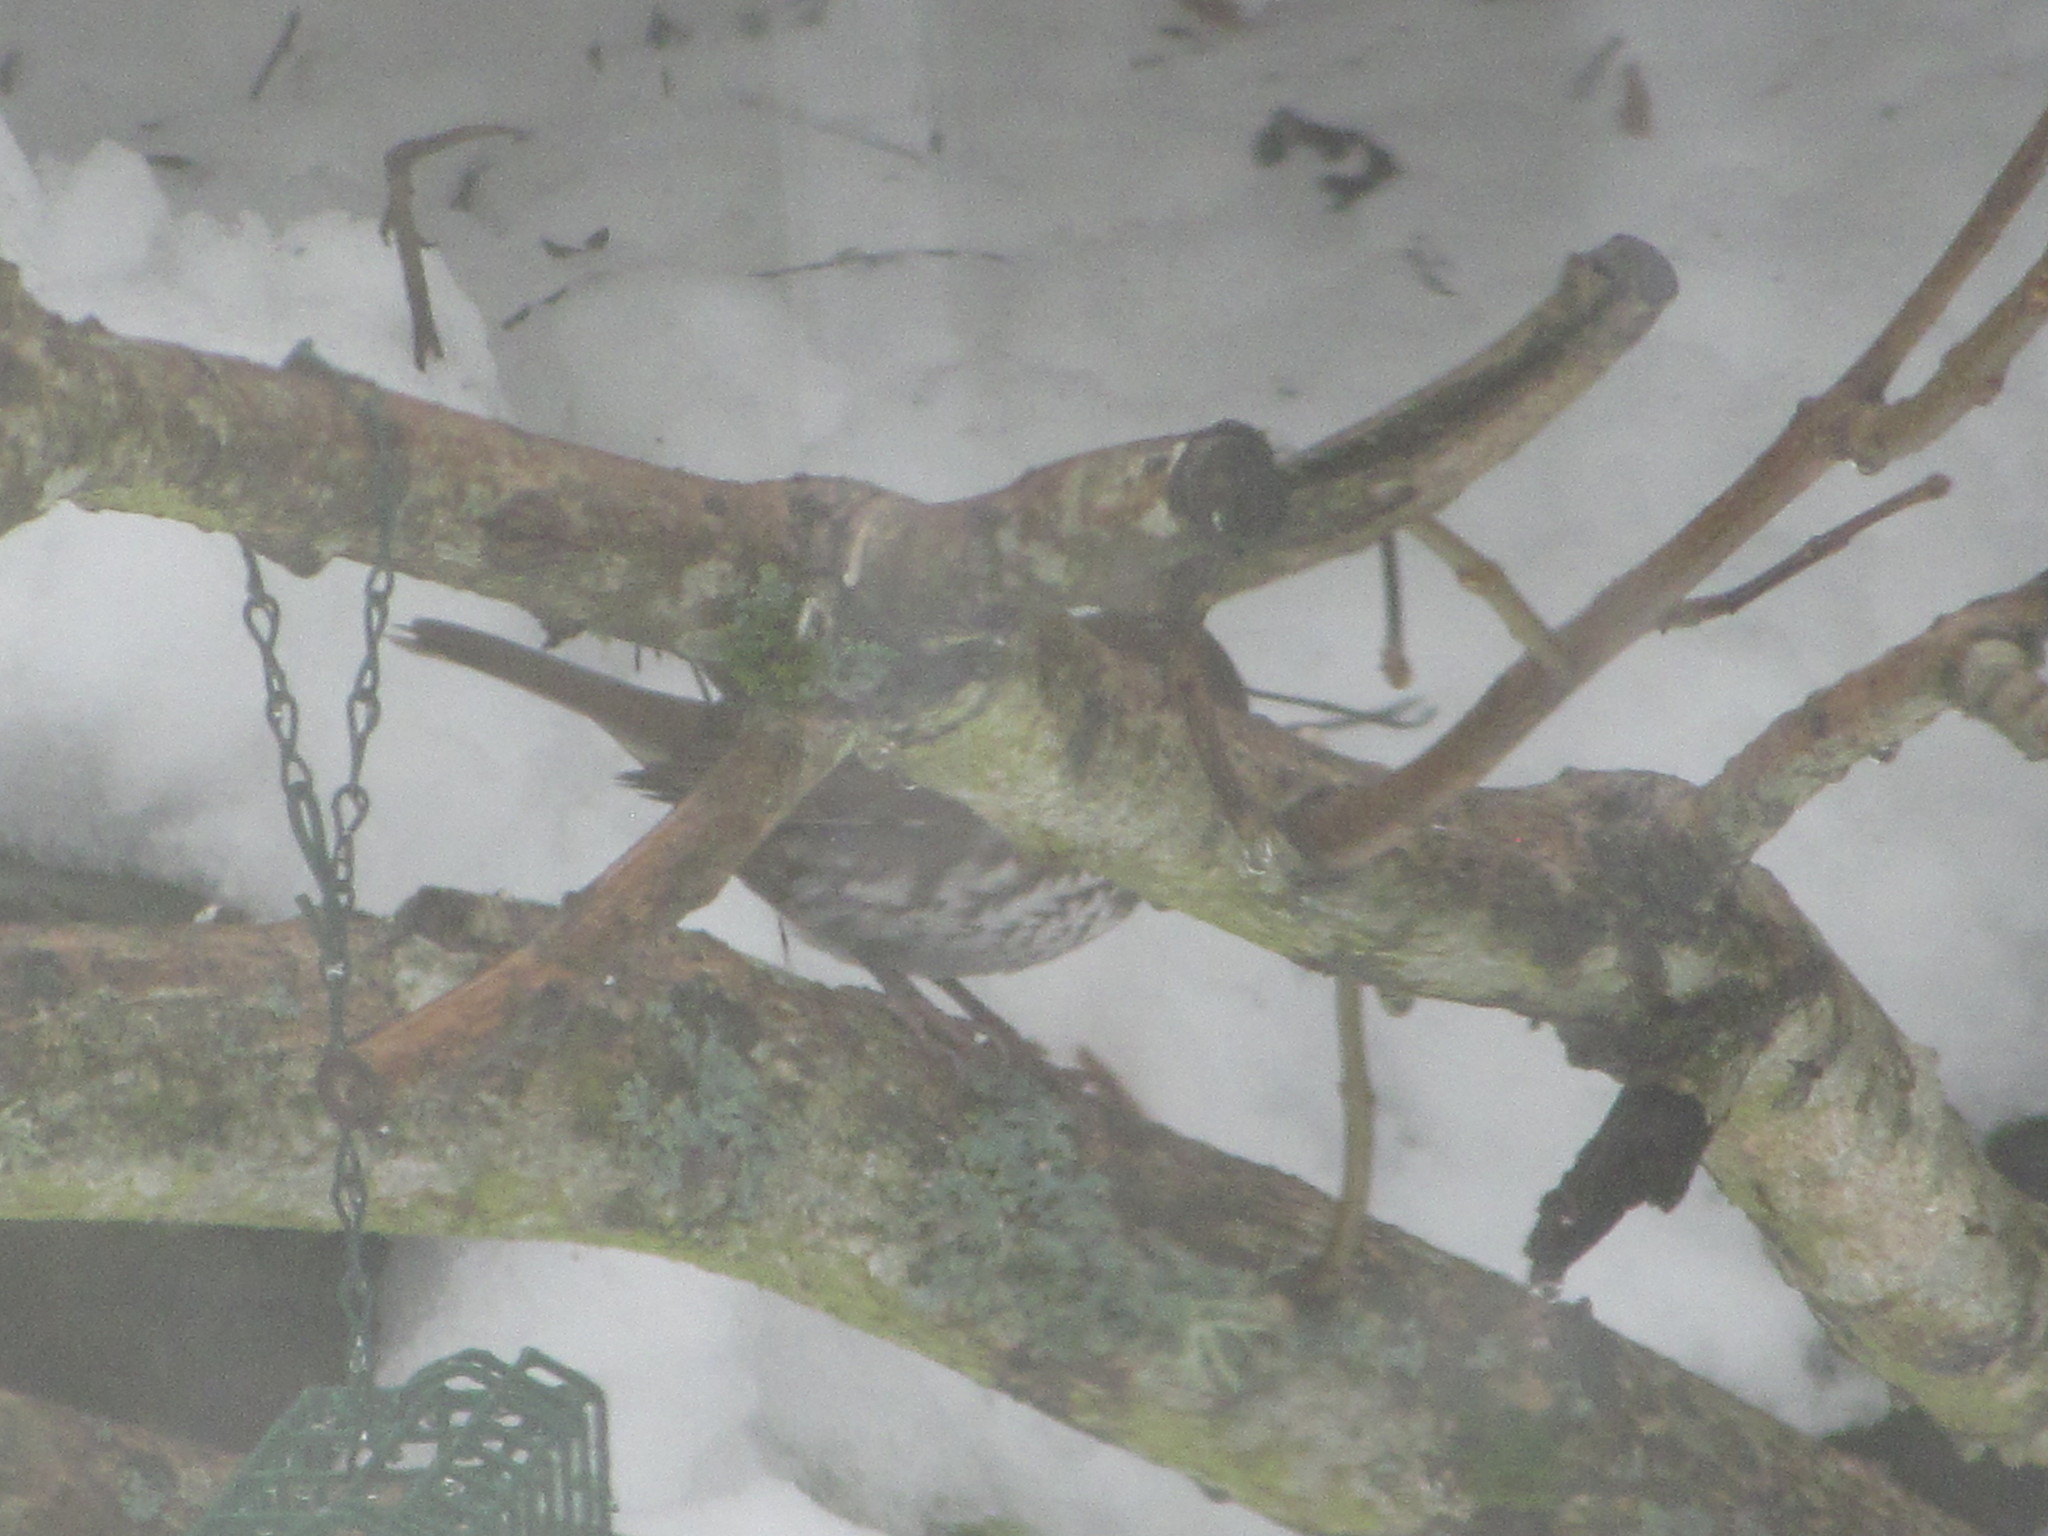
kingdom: Animalia
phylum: Chordata
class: Aves
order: Passeriformes
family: Passerellidae
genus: Passerella
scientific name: Passerella iliaca
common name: Fox sparrow
